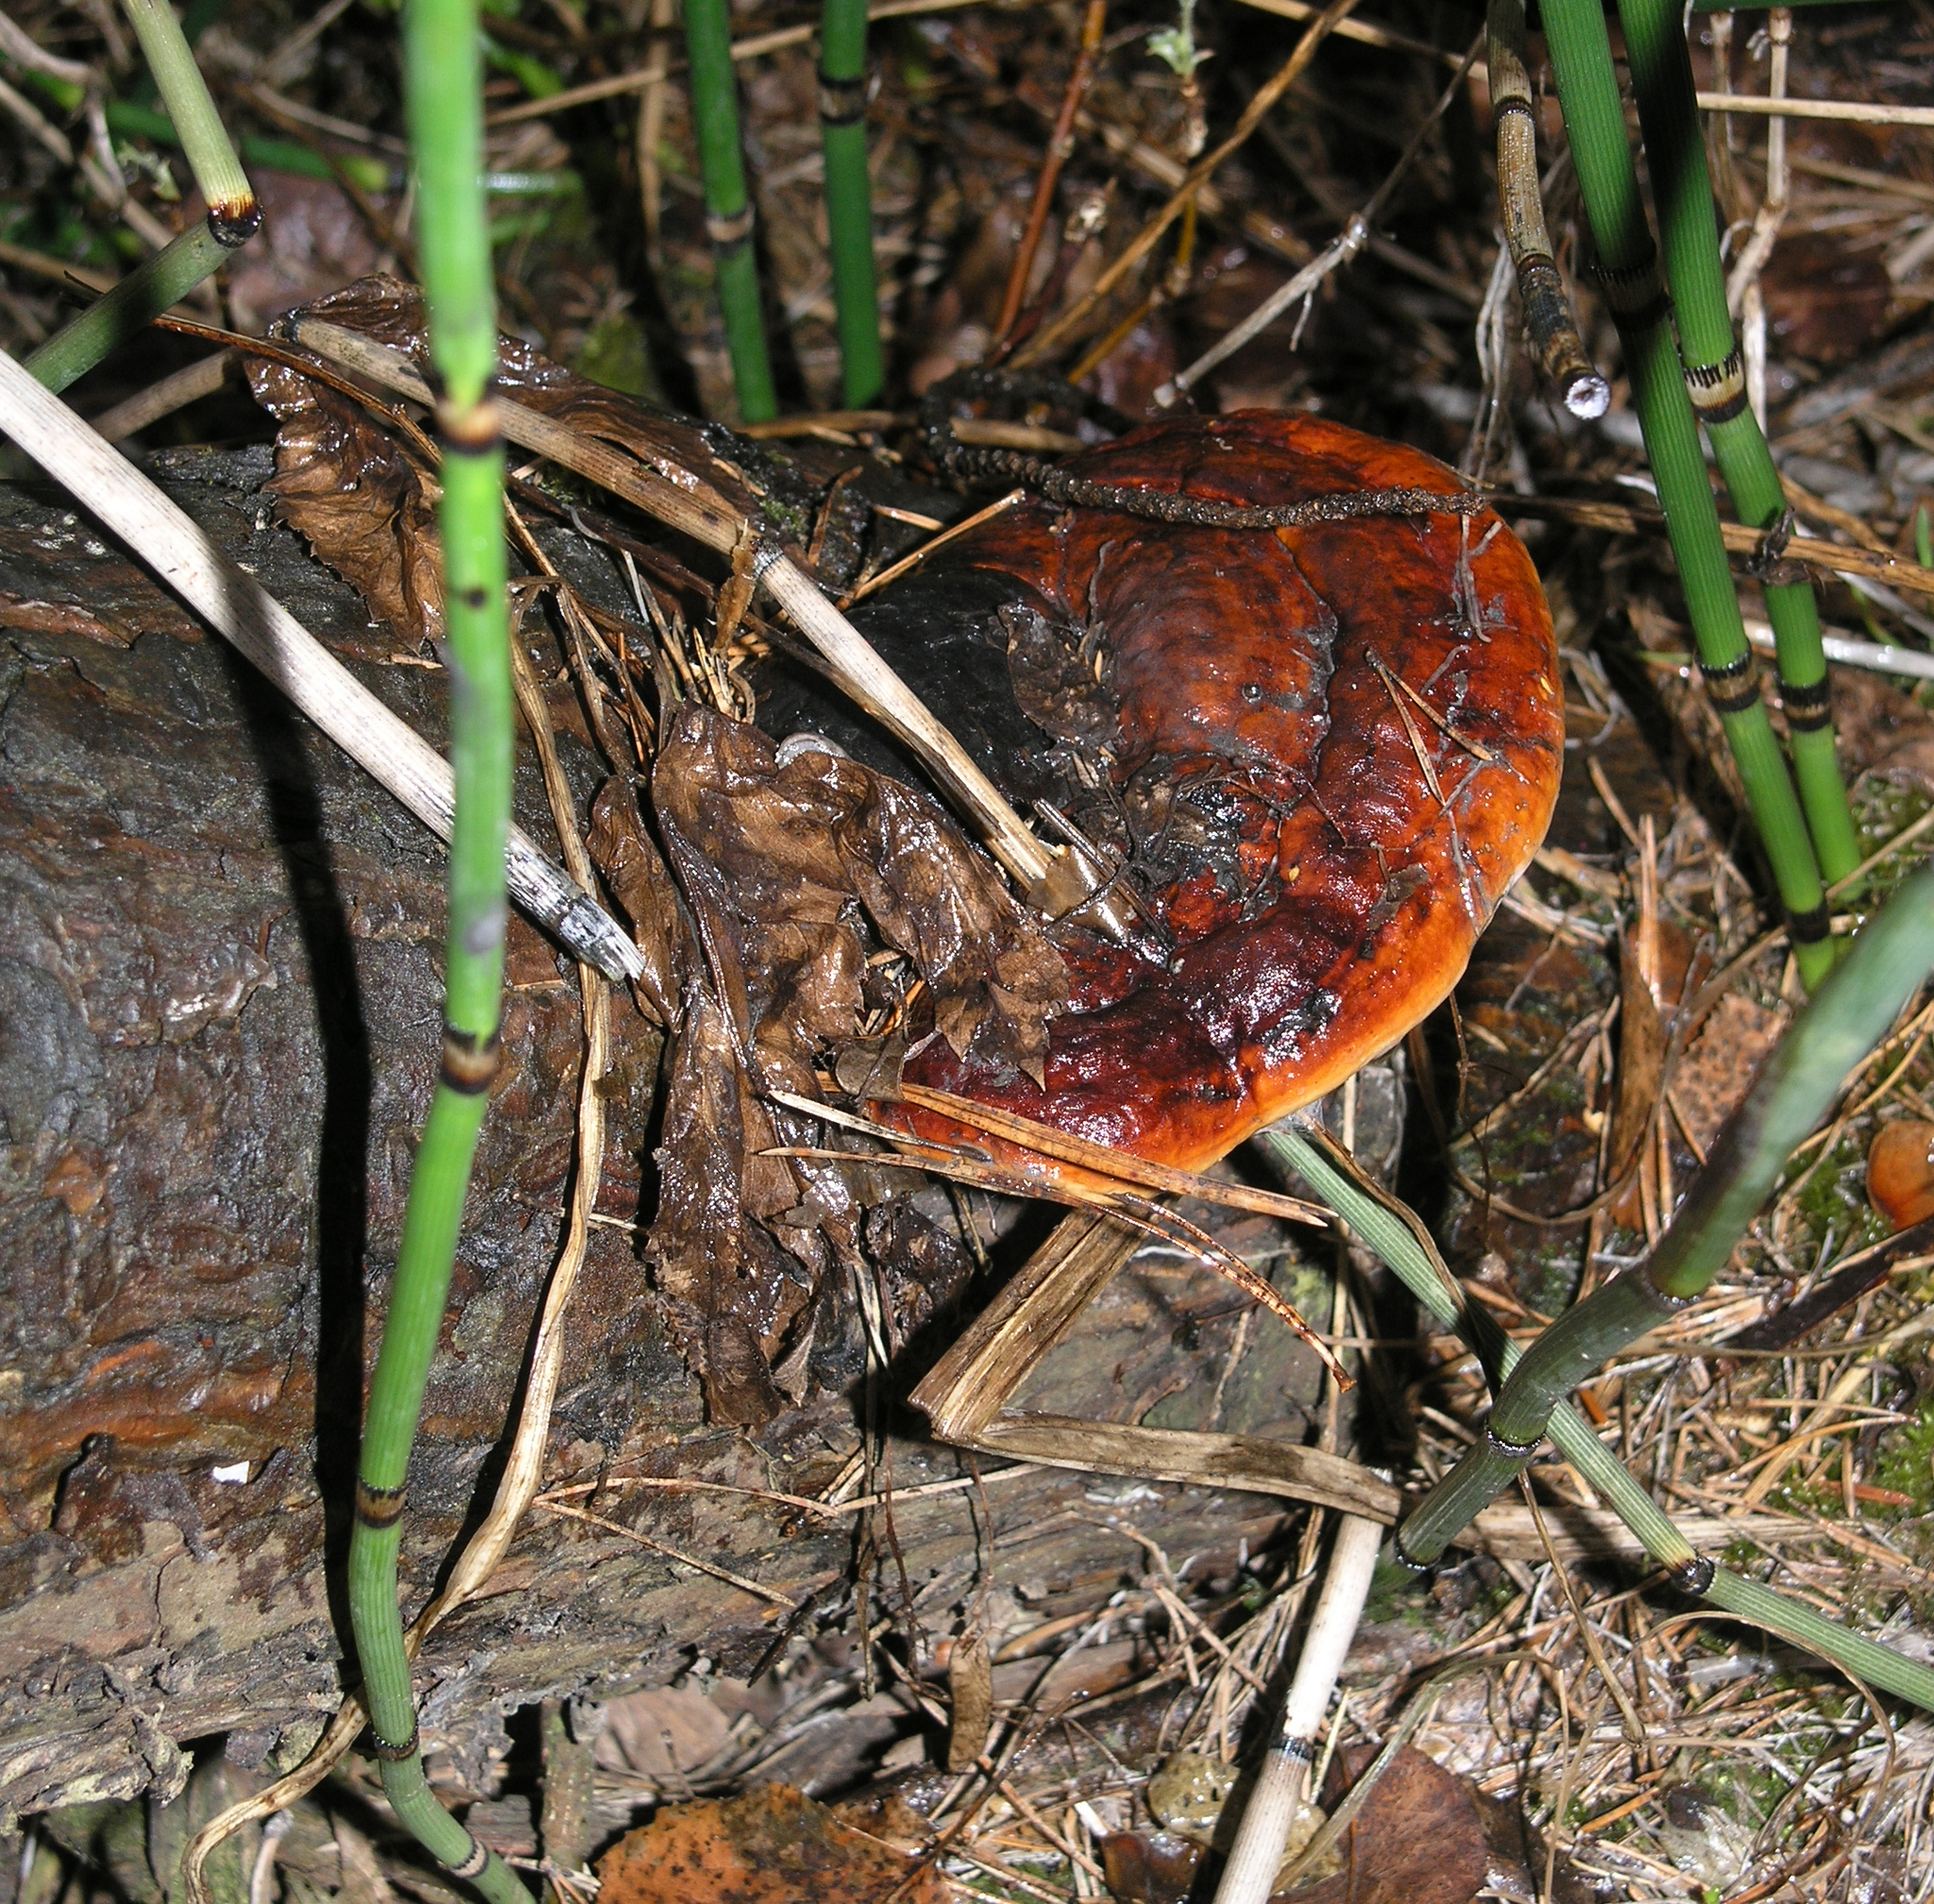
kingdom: Fungi
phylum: Basidiomycota
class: Agaricomycetes
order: Polyporales
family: Fomitopsidaceae
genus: Fomitopsis
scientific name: Fomitopsis pinicola
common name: Red-belted bracket
